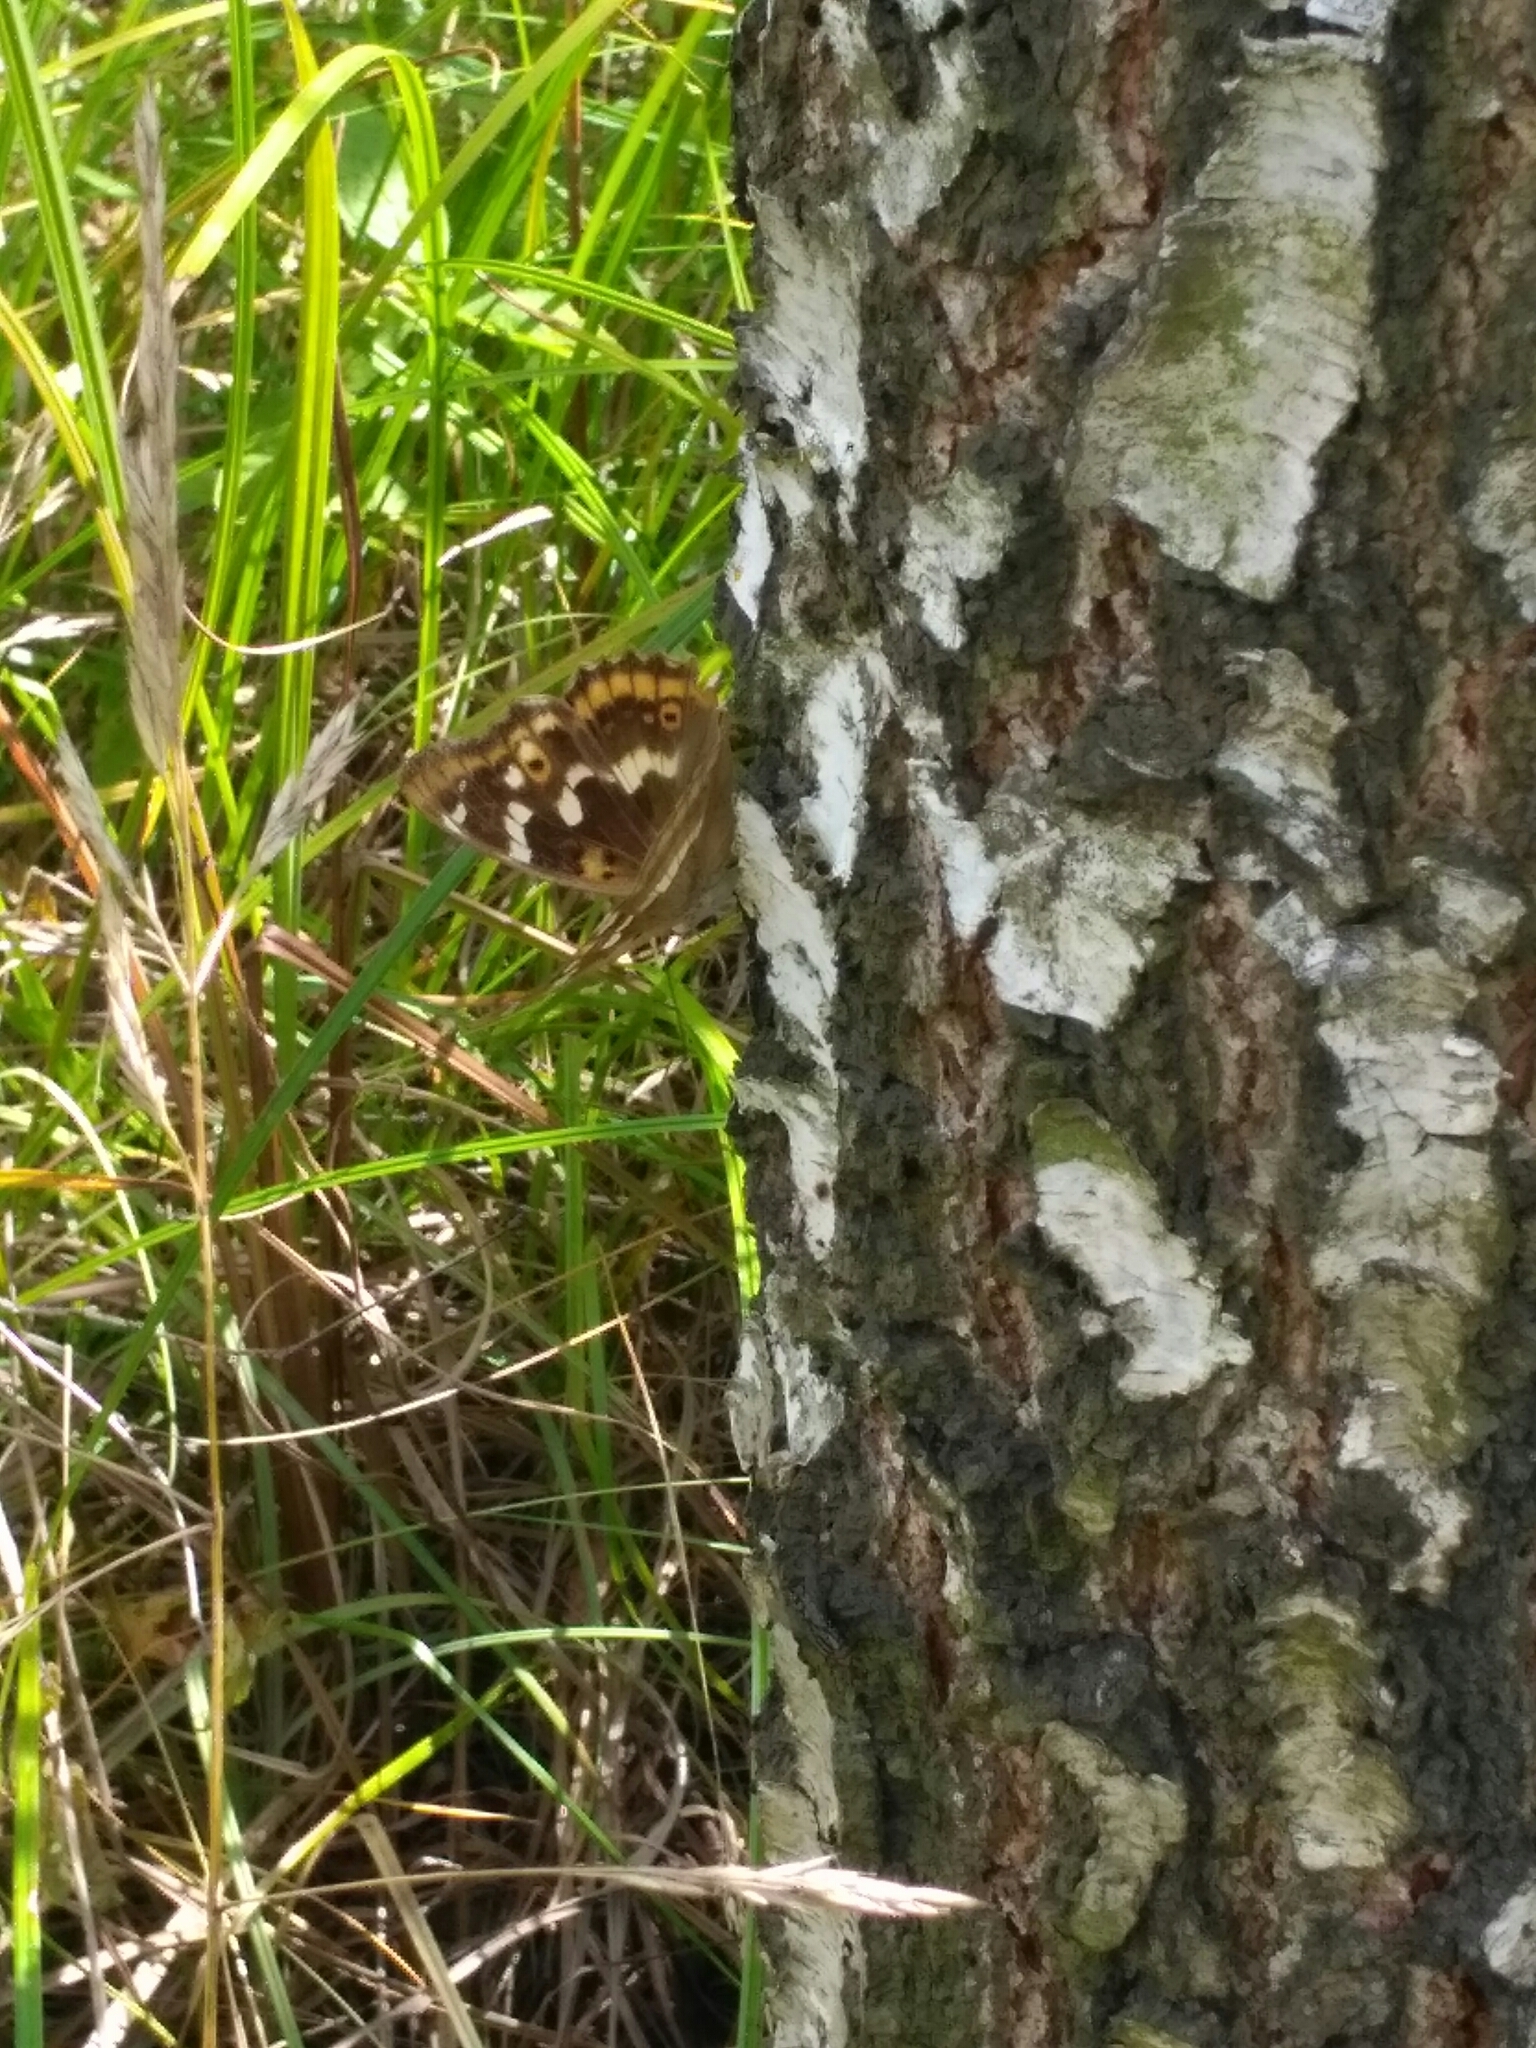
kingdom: Animalia
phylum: Arthropoda
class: Insecta
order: Lepidoptera
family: Nymphalidae
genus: Apatura
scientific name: Apatura ilia
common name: Lesser purple emperor
